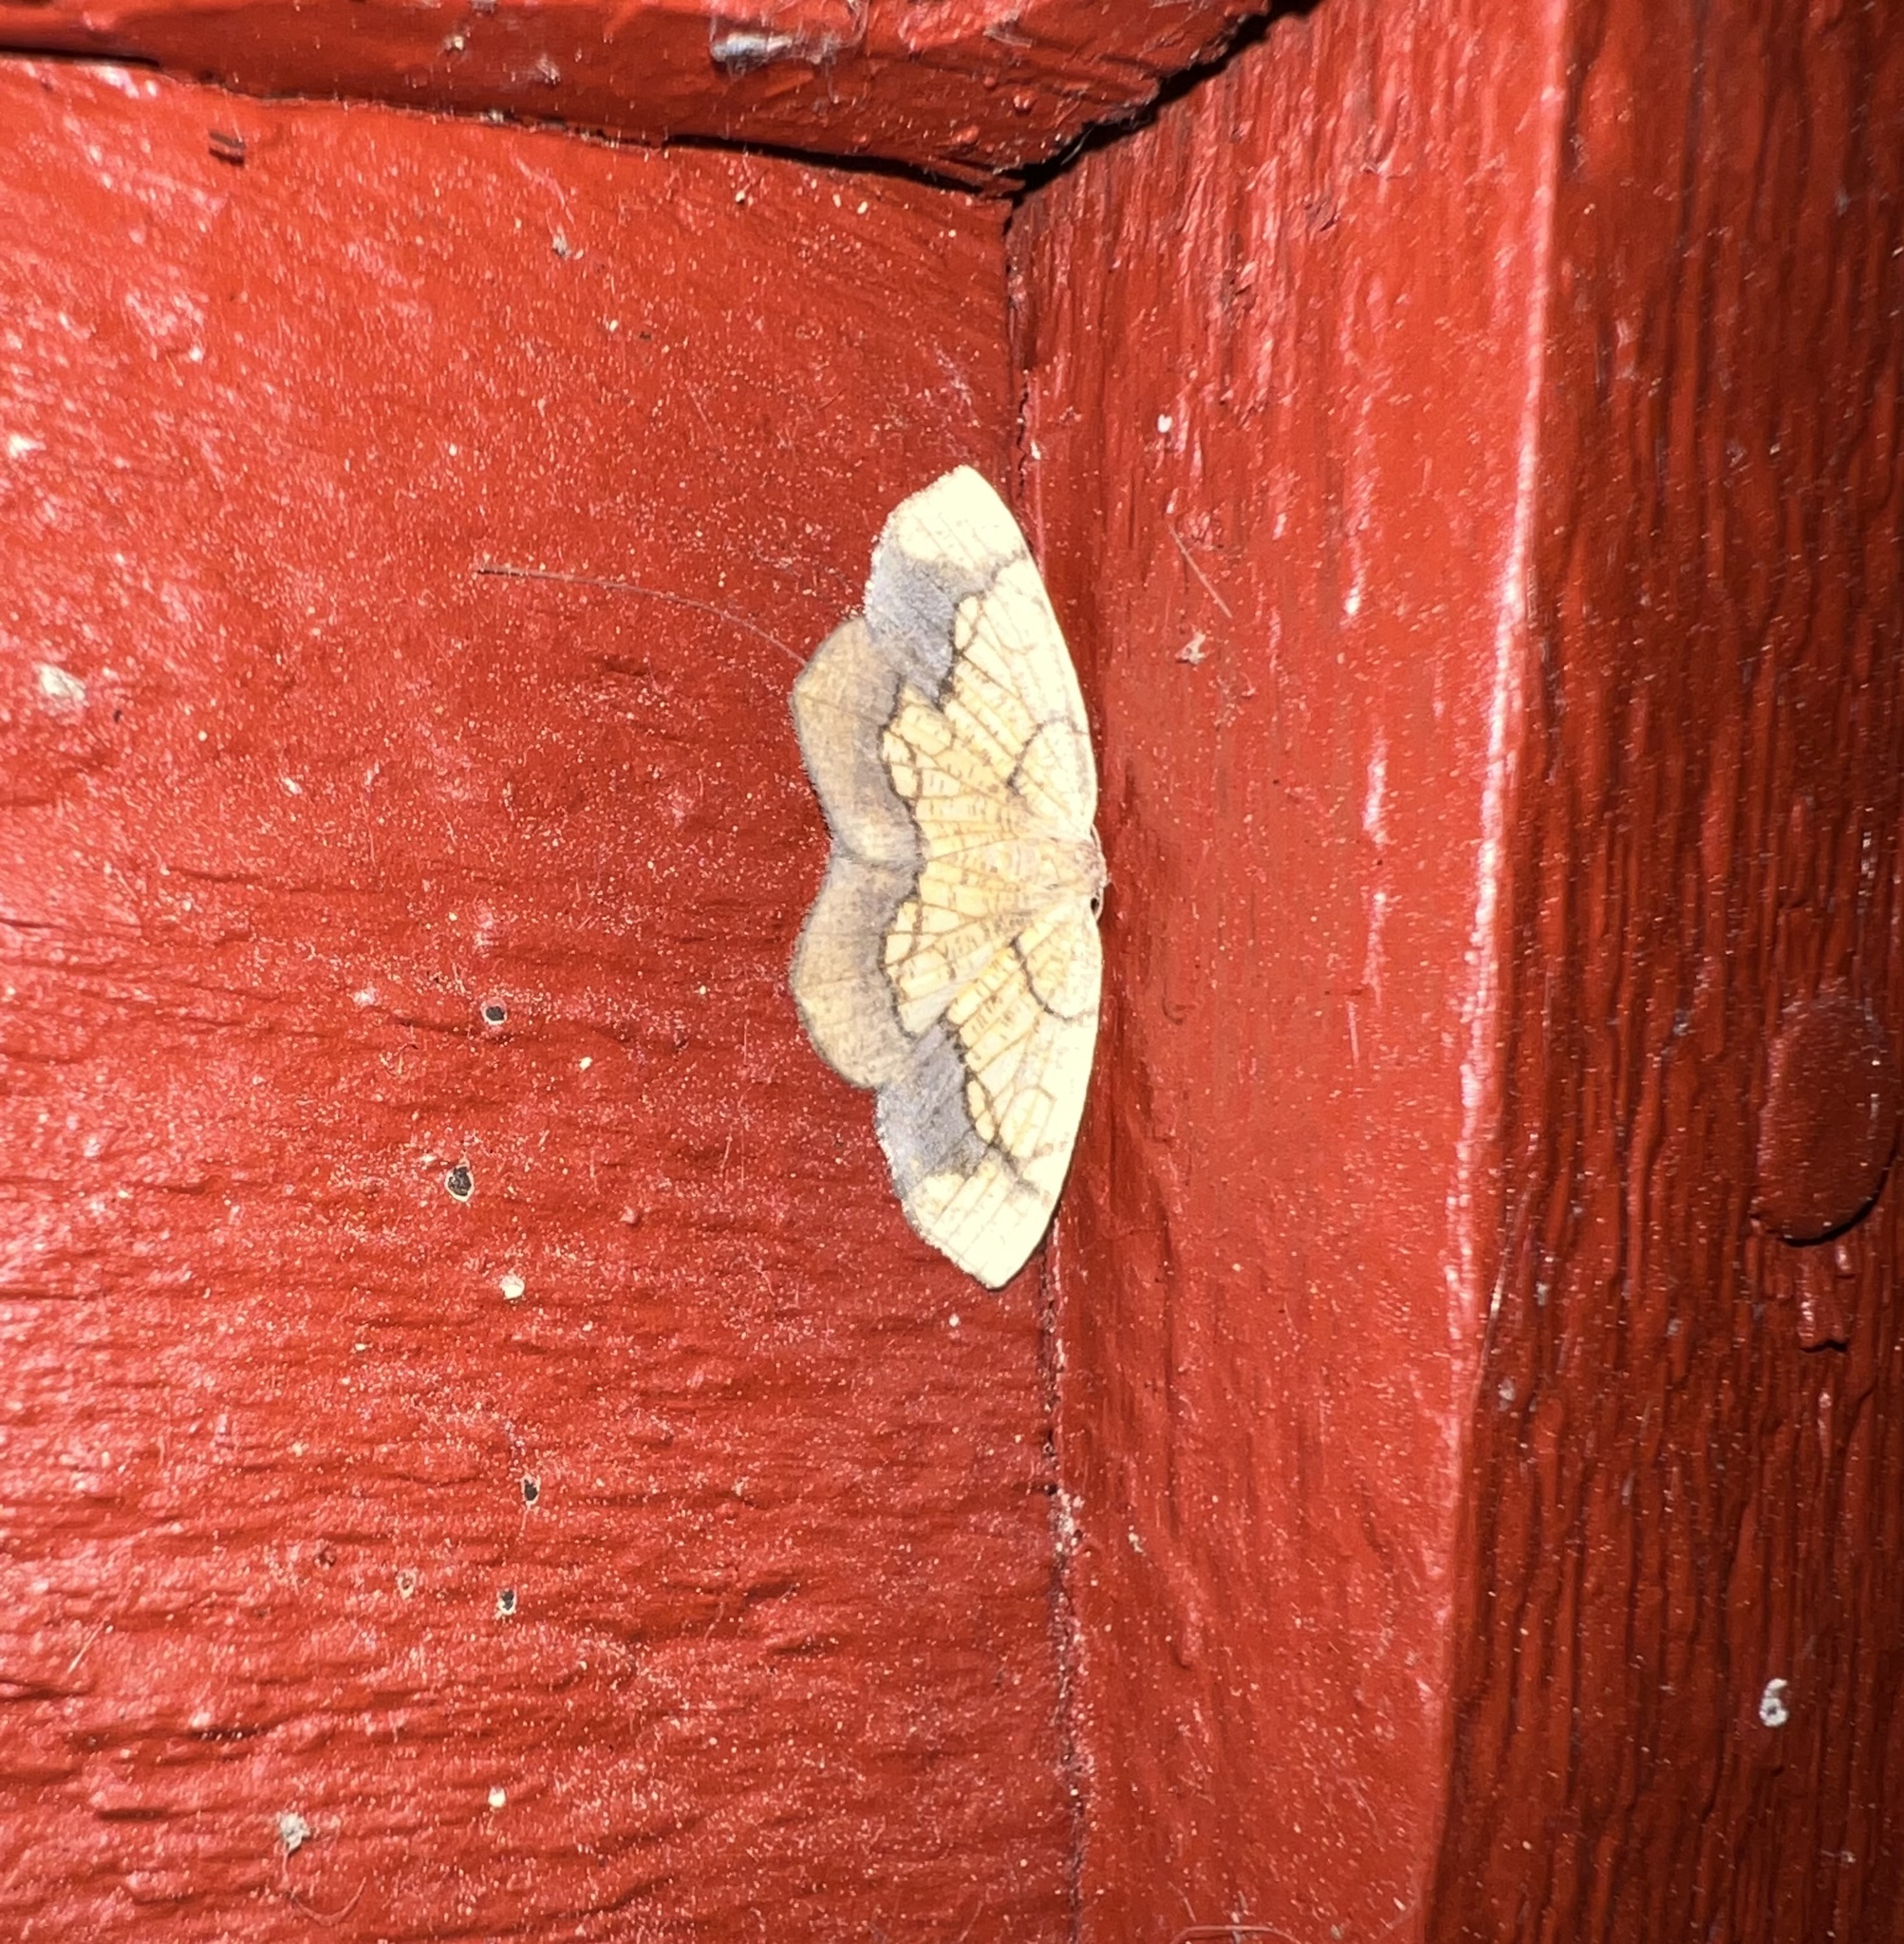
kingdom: Animalia
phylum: Arthropoda
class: Insecta
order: Lepidoptera
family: Geometridae
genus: Nematocampa
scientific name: Nematocampa resistaria
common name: Horned spanworm moth
